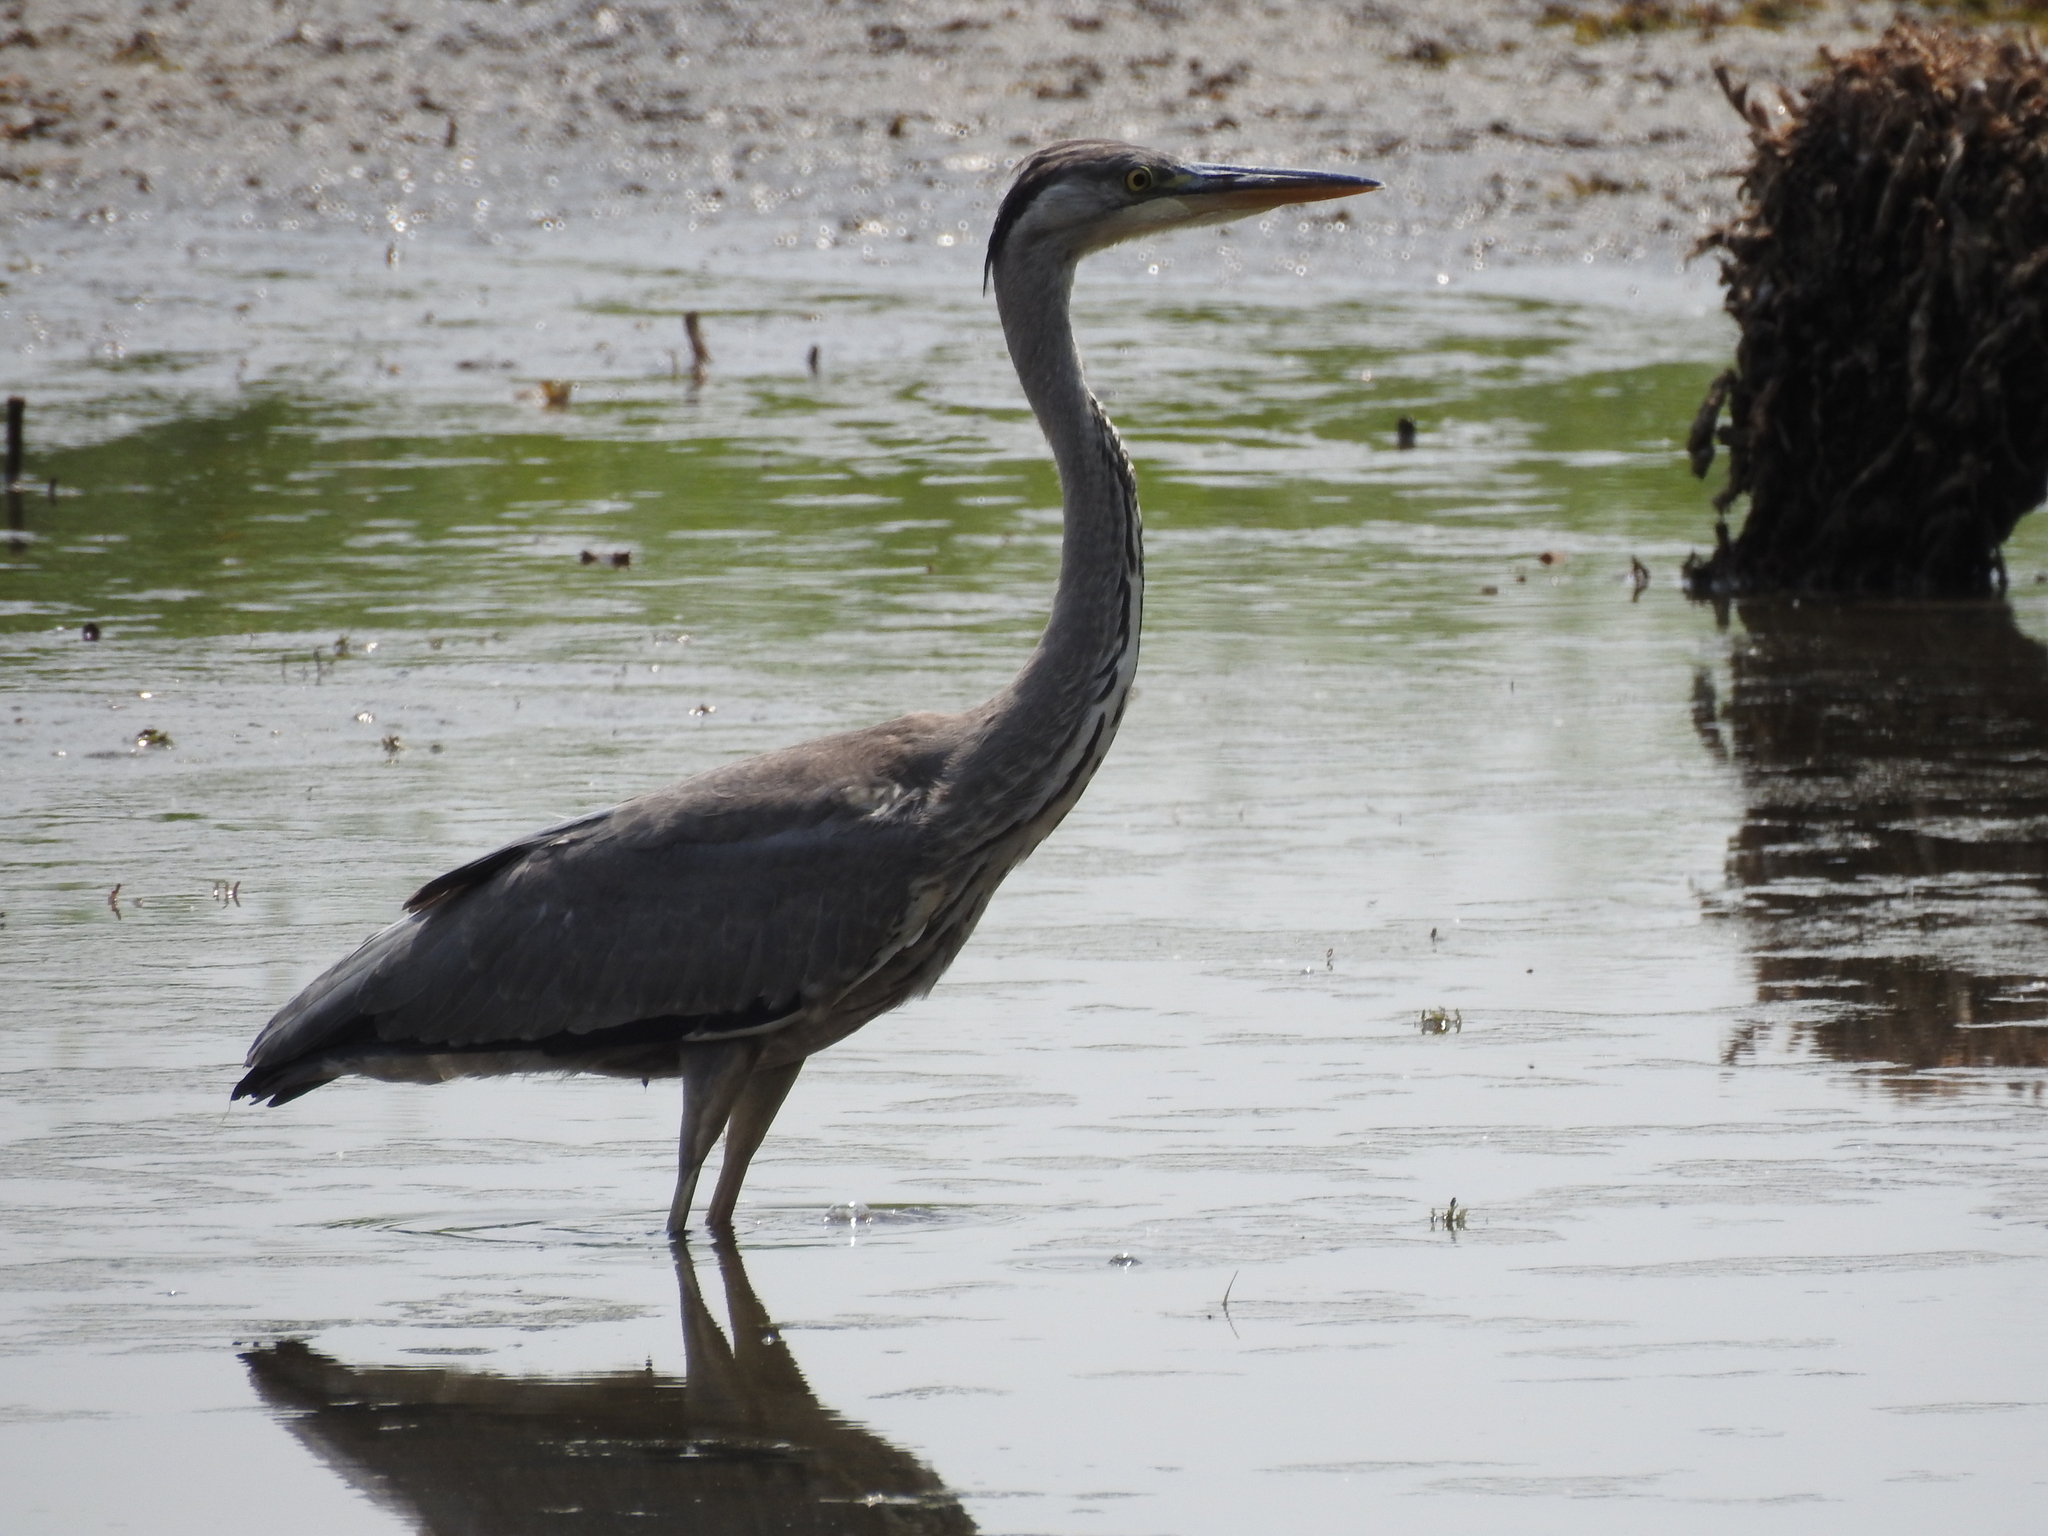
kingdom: Animalia
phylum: Chordata
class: Aves
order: Pelecaniformes
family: Ardeidae
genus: Ardea
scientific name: Ardea cinerea
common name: Grey heron
